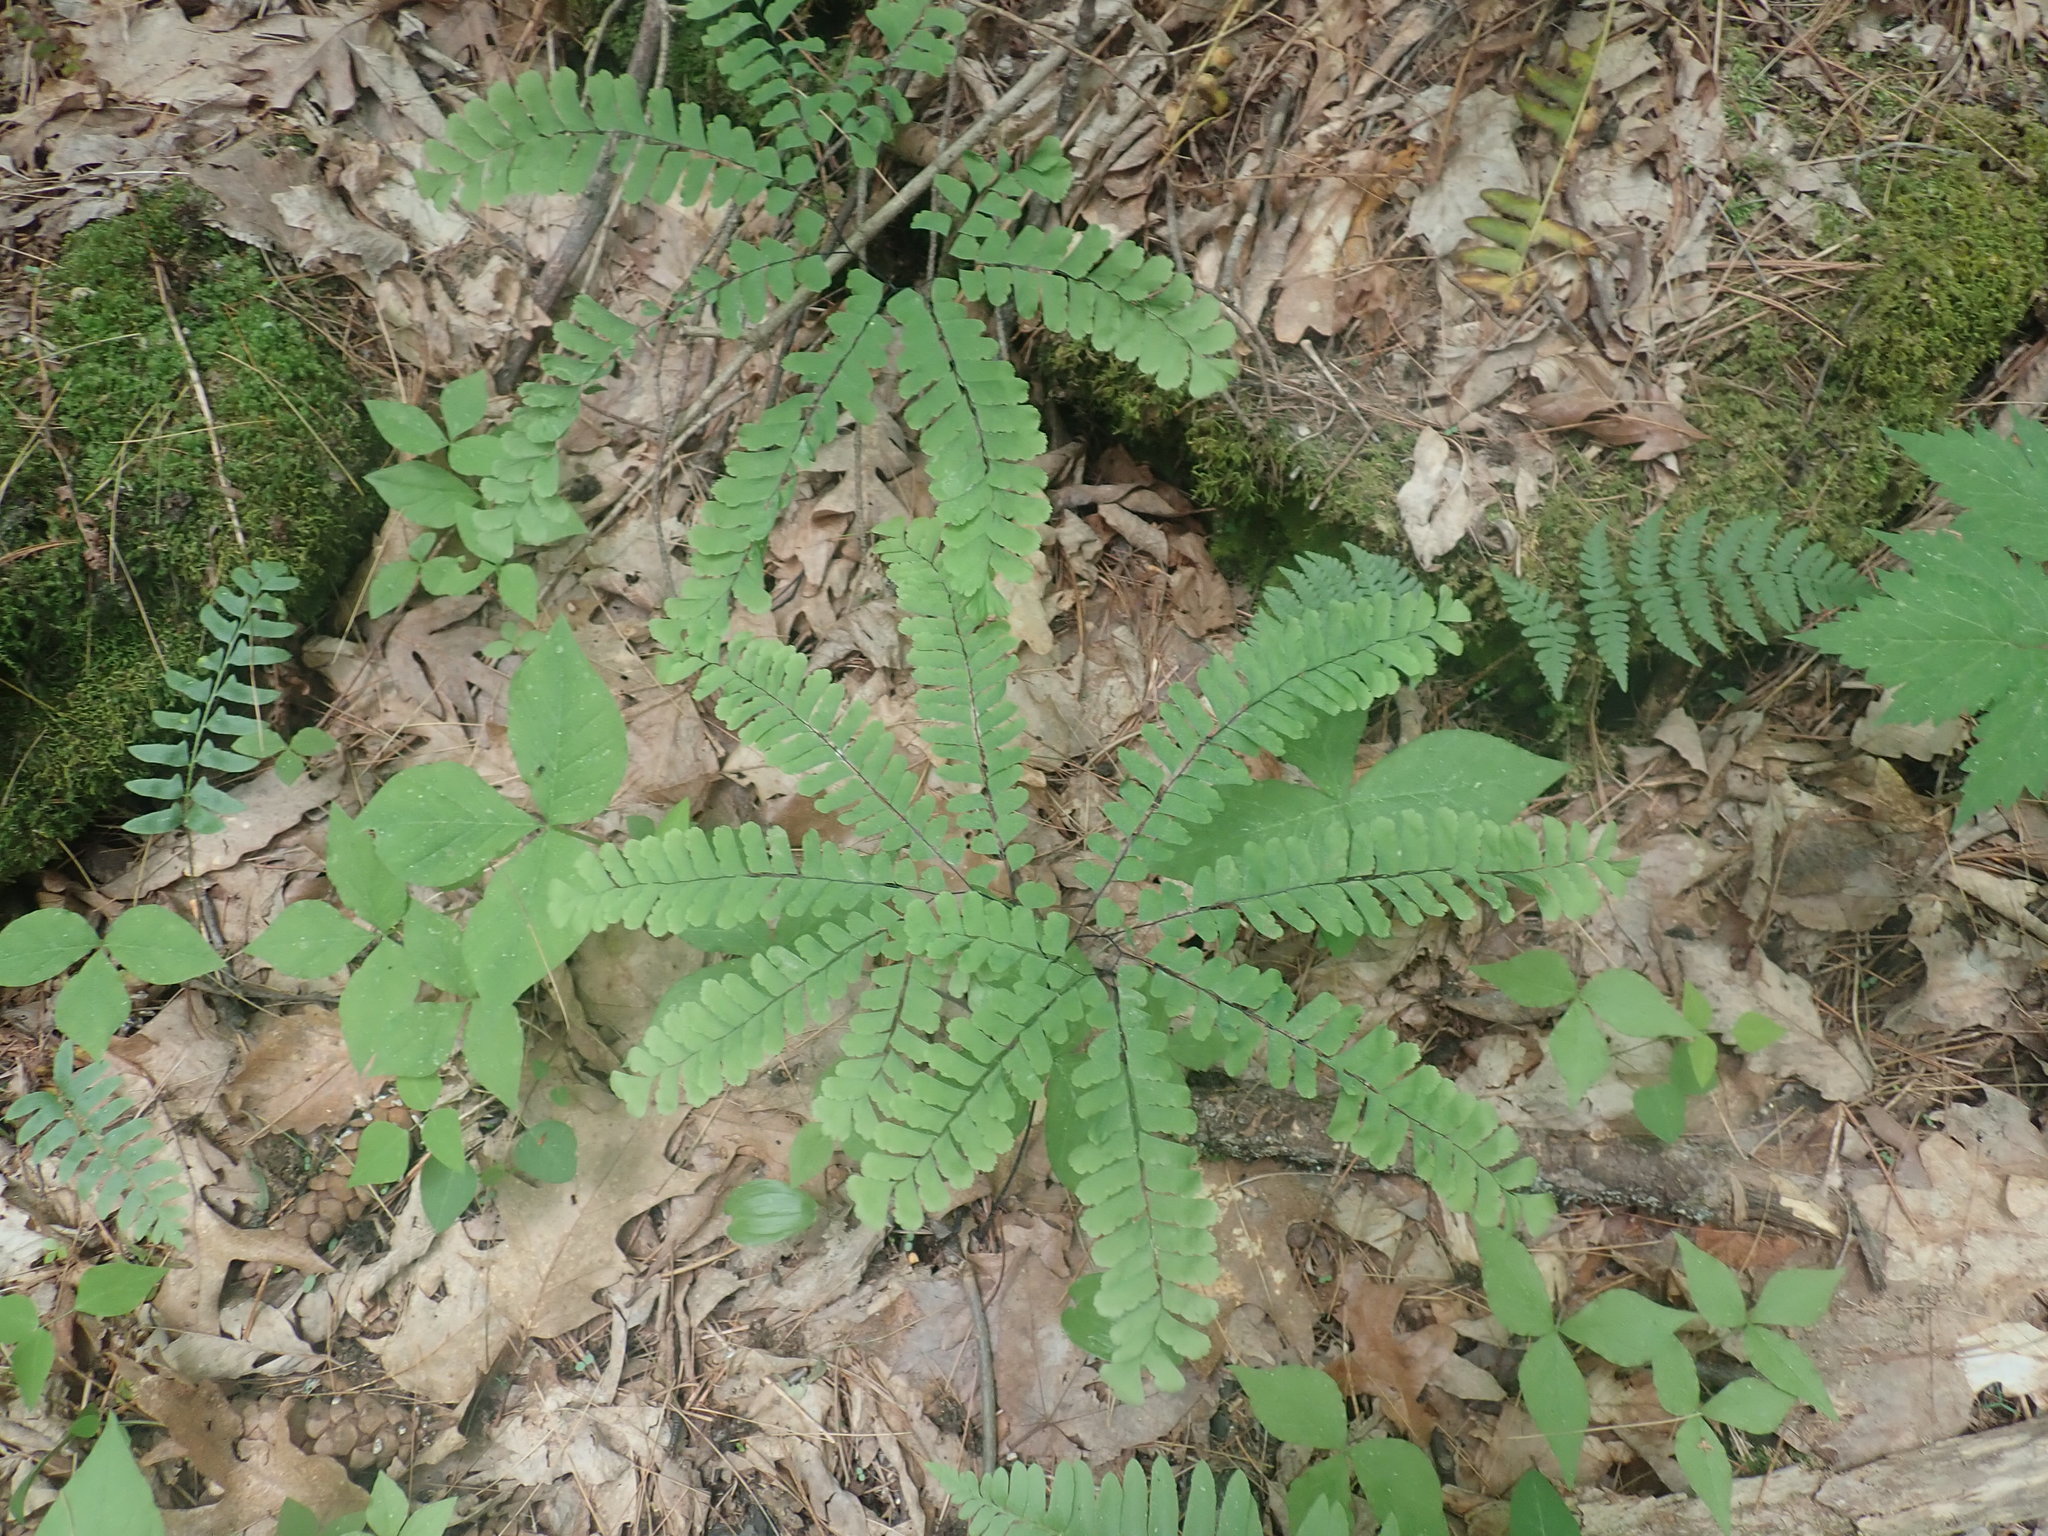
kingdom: Plantae
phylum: Tracheophyta
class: Polypodiopsida
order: Polypodiales
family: Pteridaceae
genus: Adiantum
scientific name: Adiantum pedatum
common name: Five-finger fern
